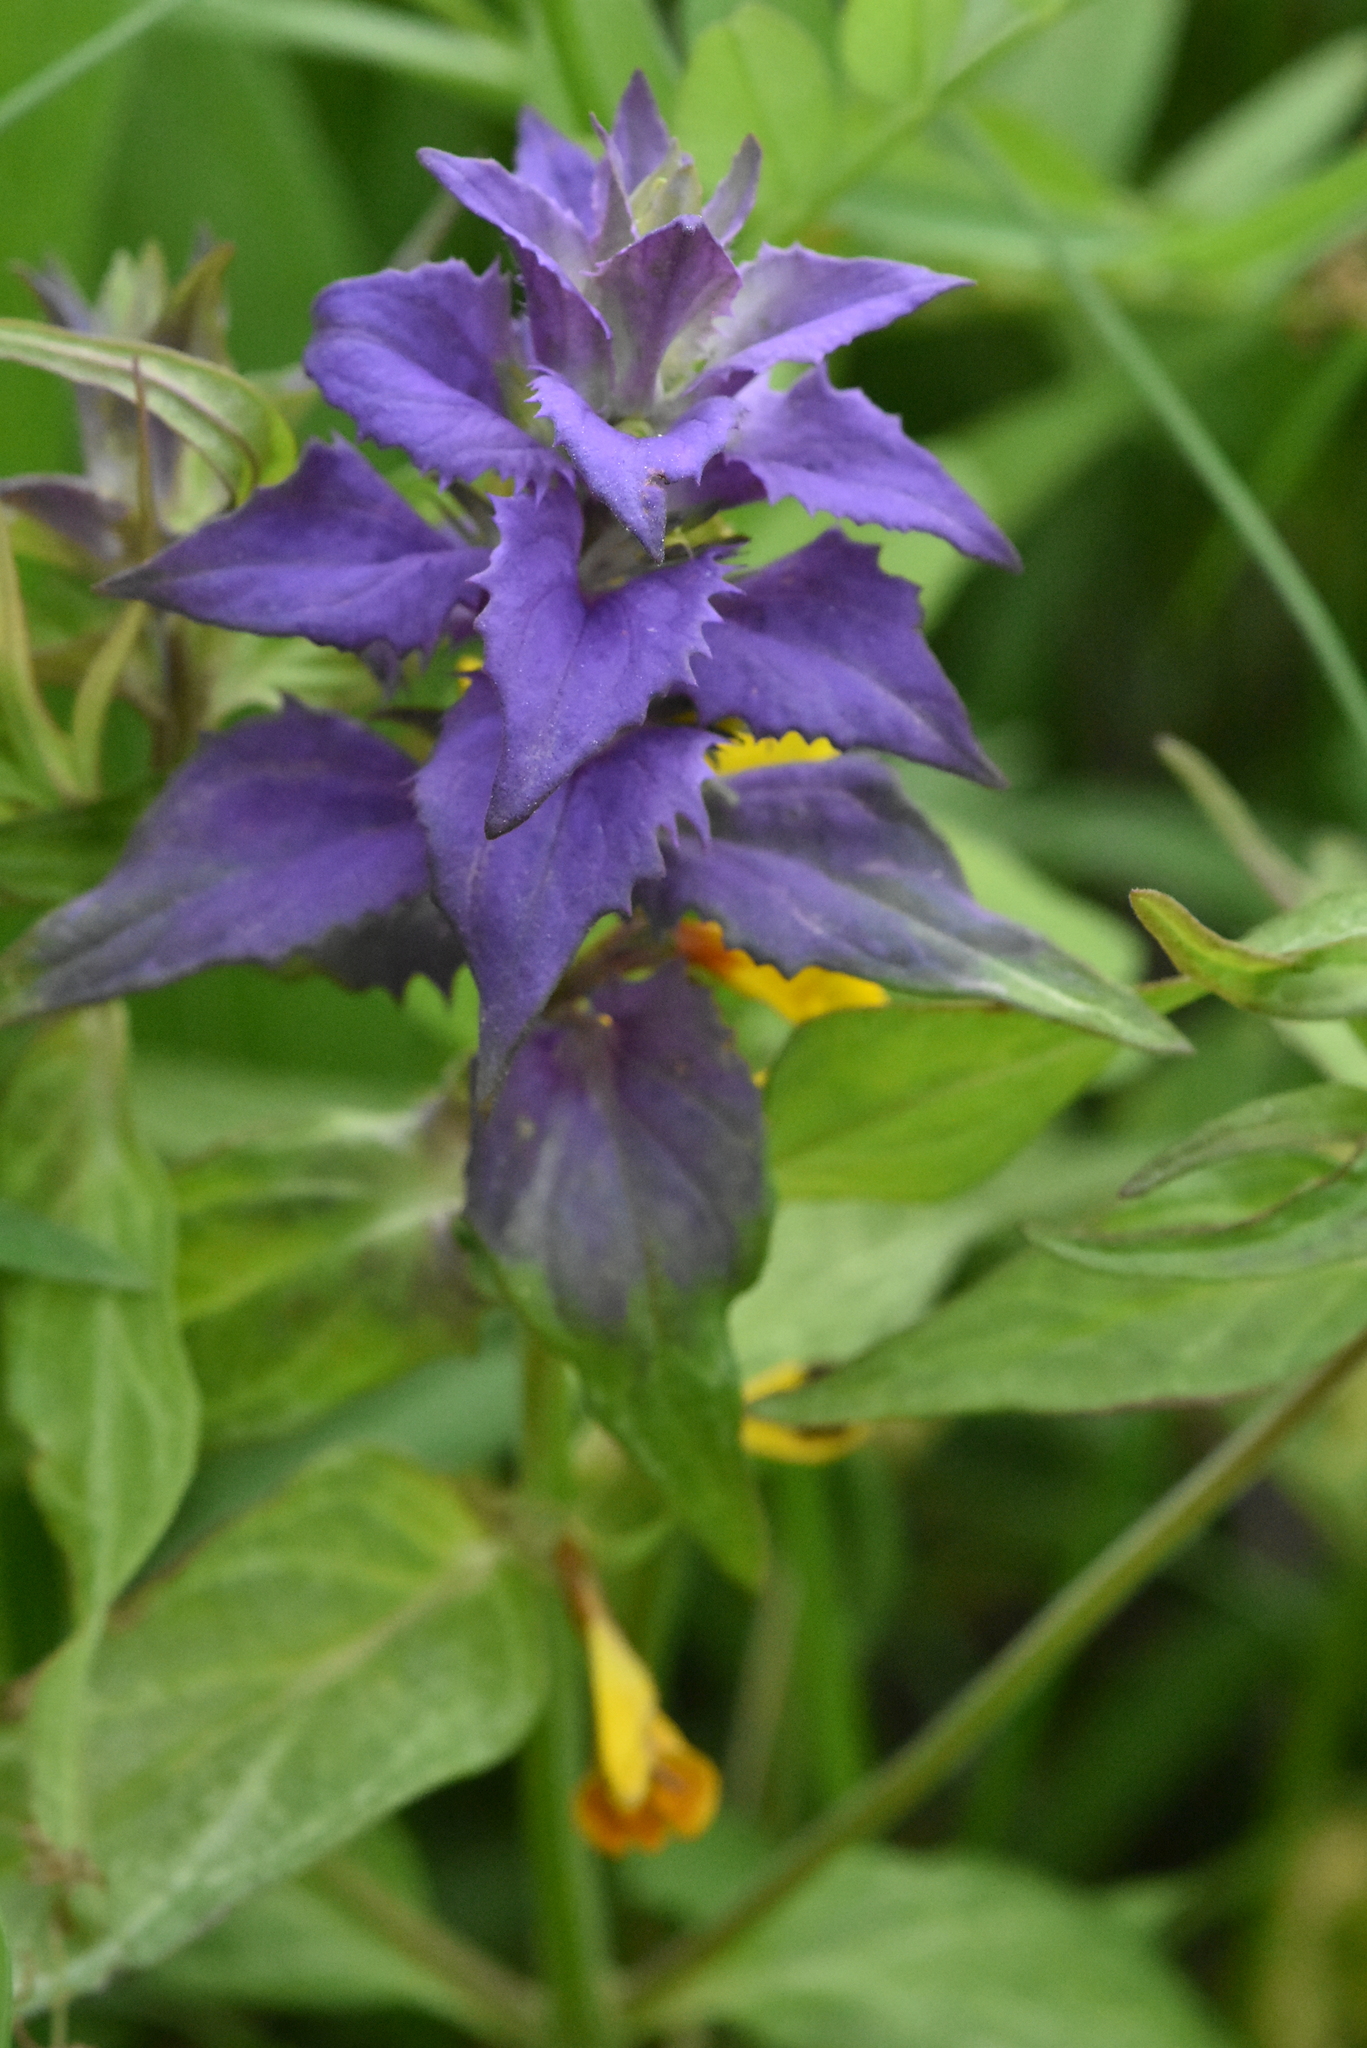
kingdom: Plantae
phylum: Tracheophyta
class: Magnoliopsida
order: Lamiales
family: Orobanchaceae
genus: Melampyrum
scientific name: Melampyrum nemorosum
